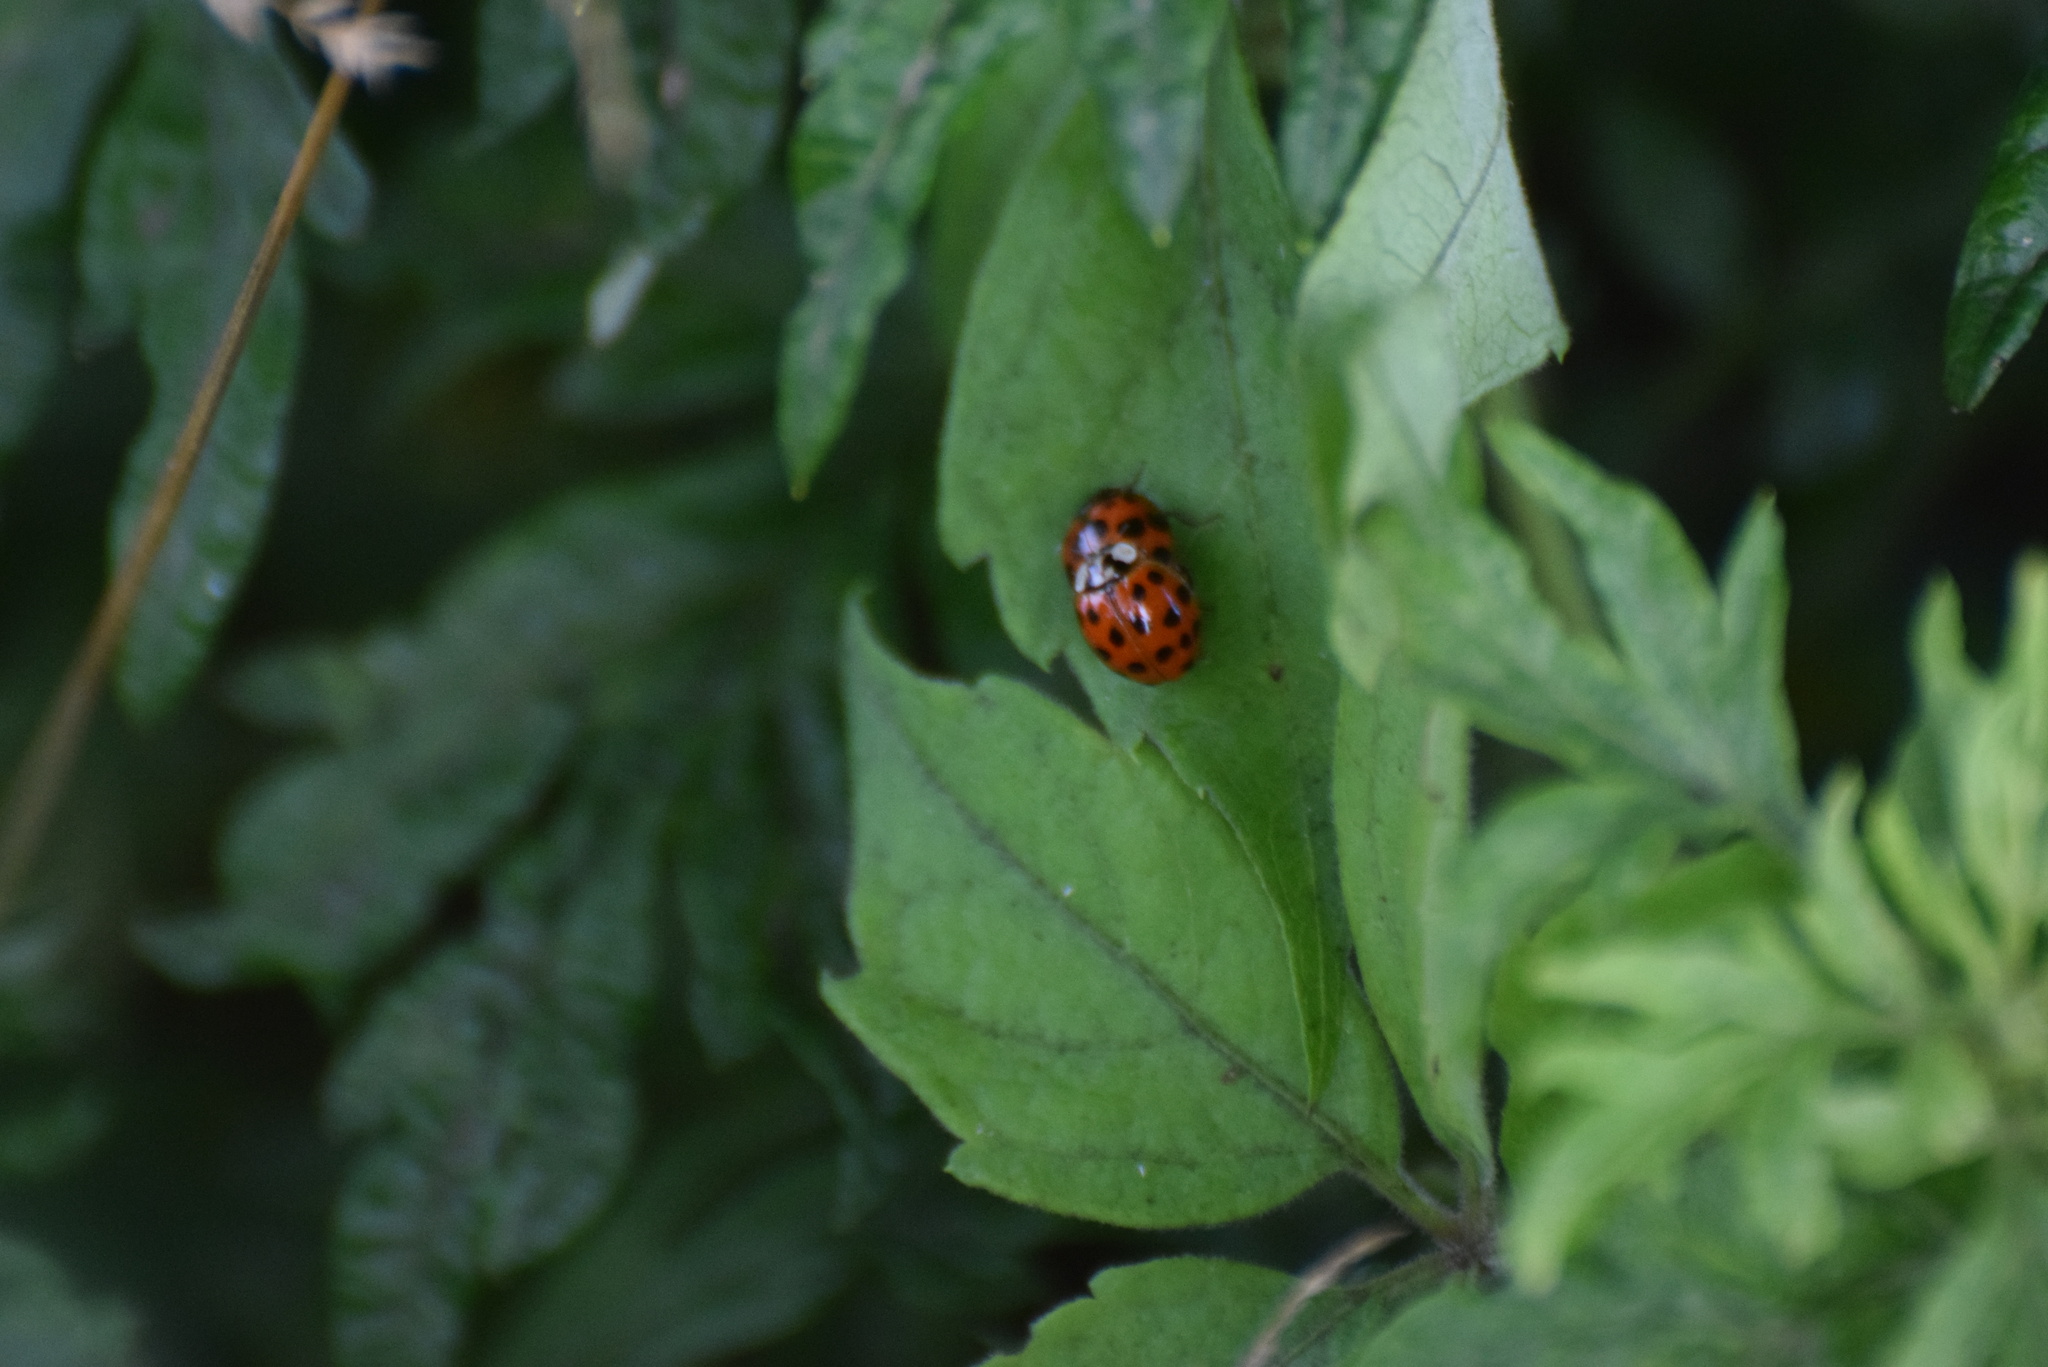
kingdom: Animalia
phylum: Arthropoda
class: Insecta
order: Coleoptera
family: Coccinellidae
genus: Harmonia
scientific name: Harmonia axyridis
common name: Harlequin ladybird
